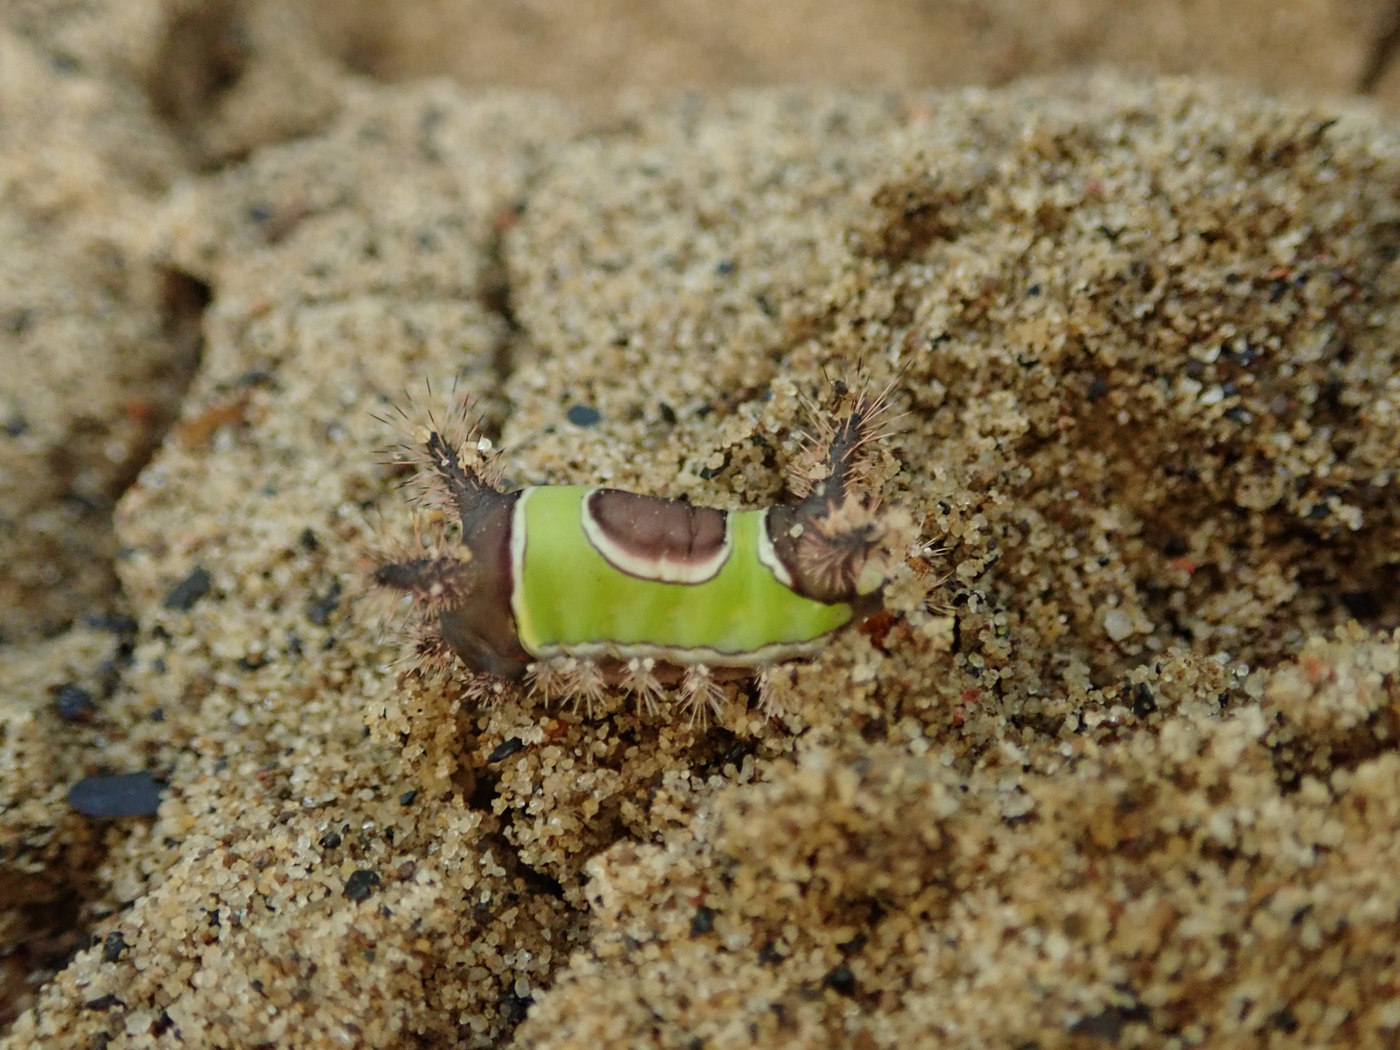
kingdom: Animalia
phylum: Arthropoda
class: Insecta
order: Lepidoptera
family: Limacodidae
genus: Acharia
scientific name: Acharia stimulea
